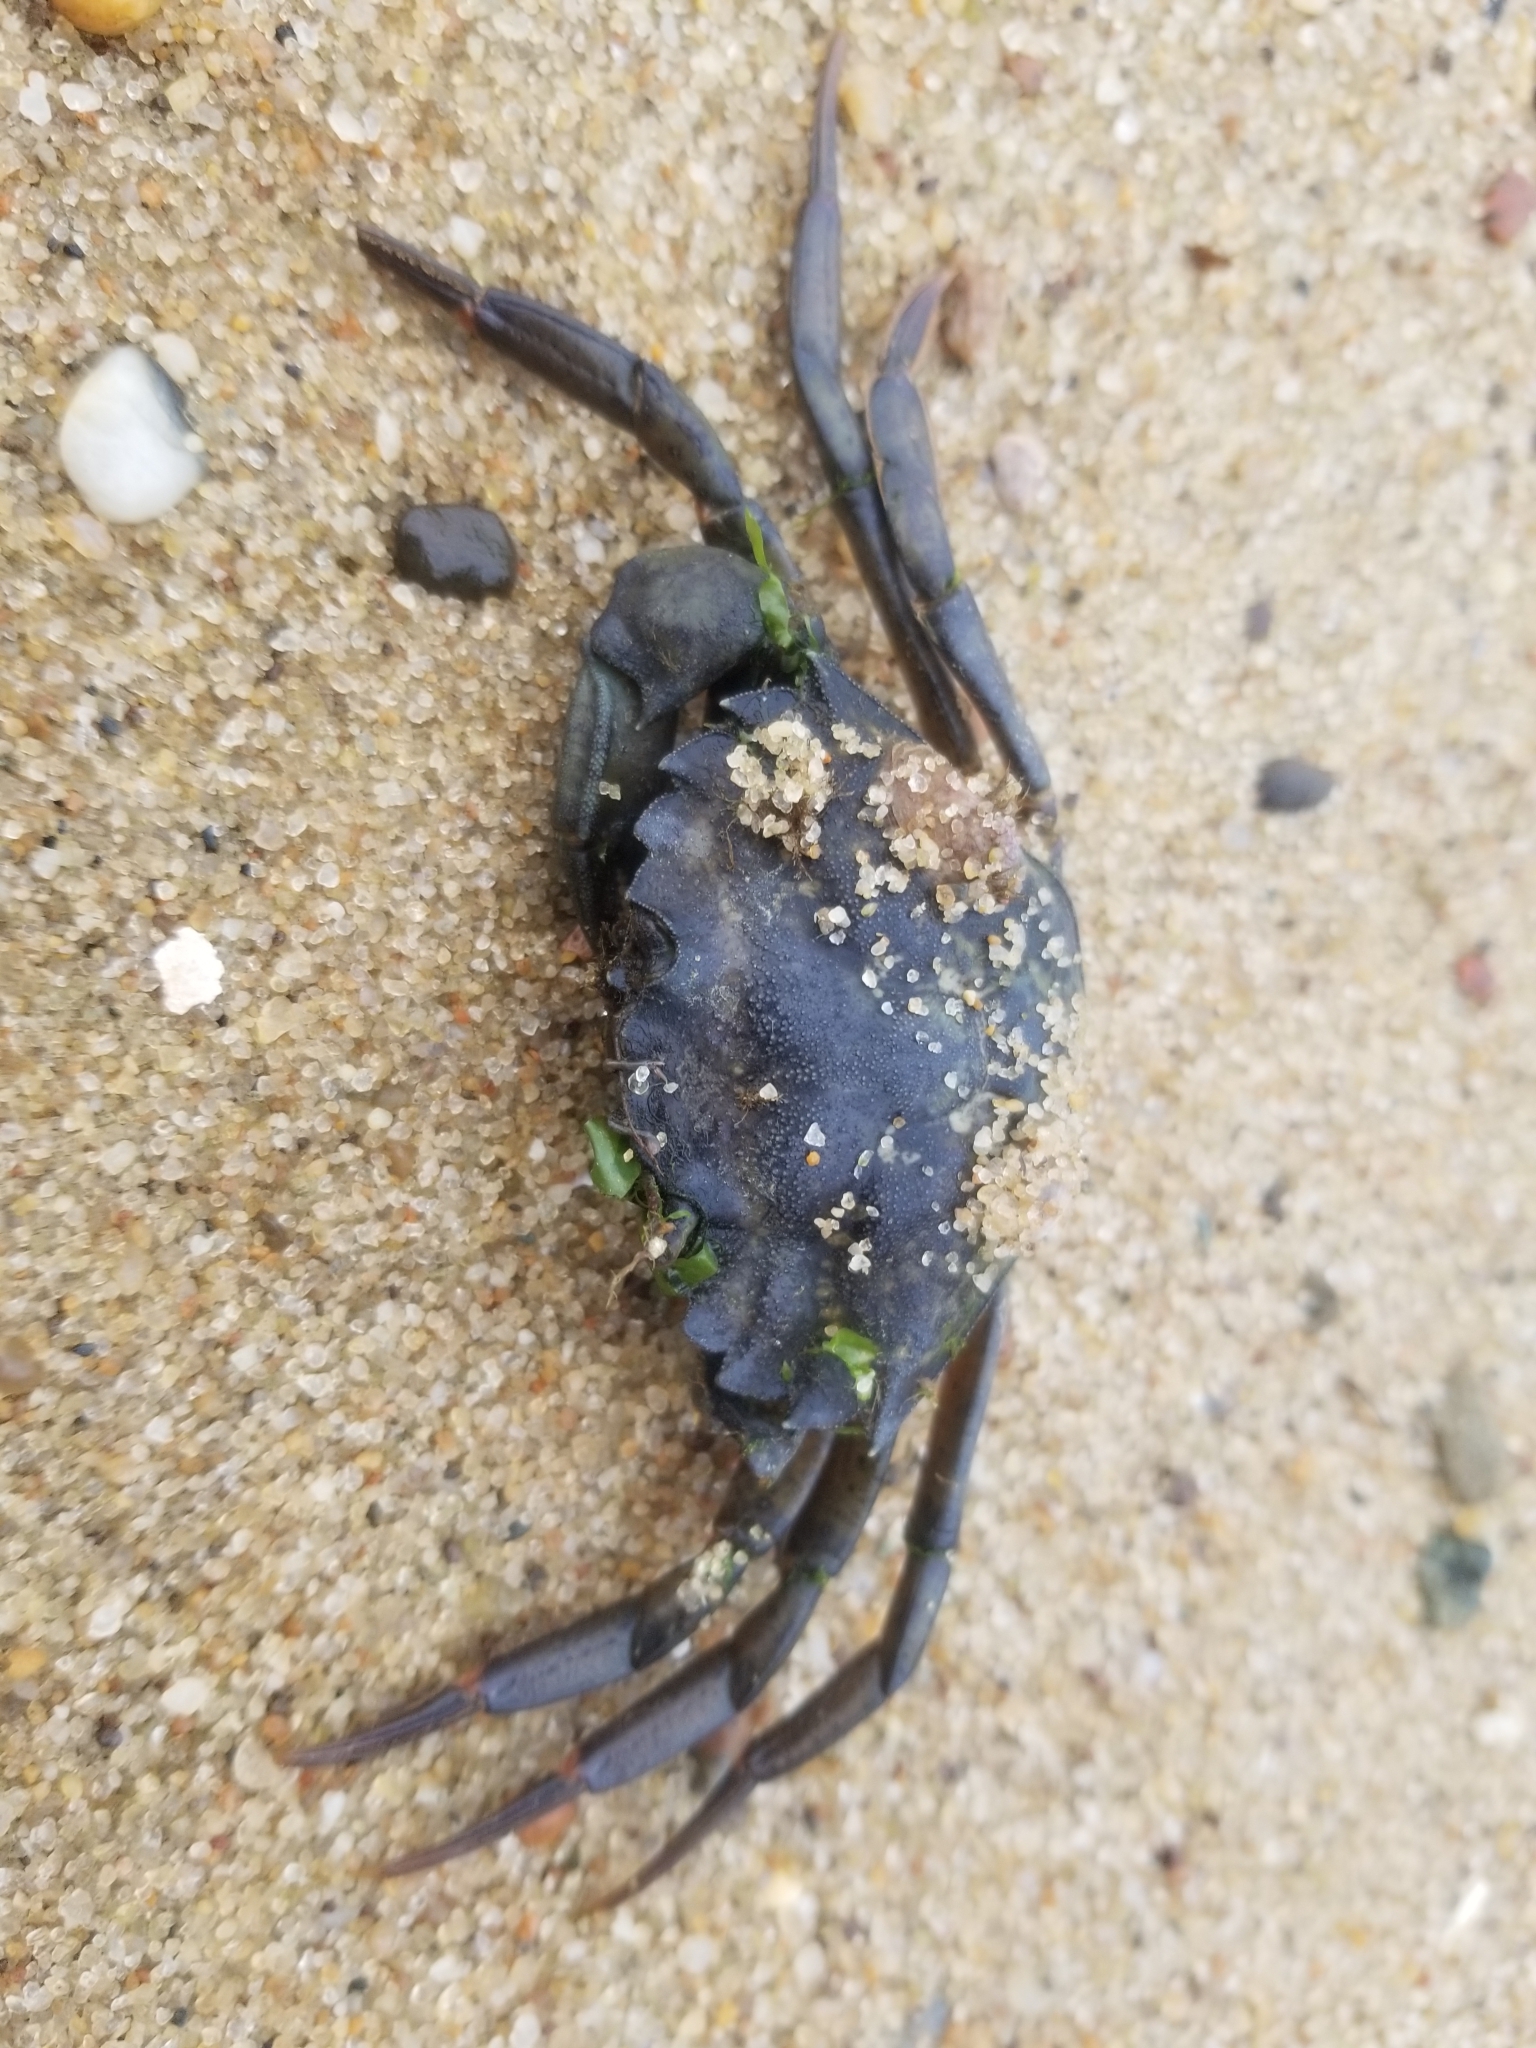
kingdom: Animalia
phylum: Arthropoda
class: Malacostraca
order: Decapoda
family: Carcinidae
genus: Carcinus
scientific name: Carcinus maenas
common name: European green crab
